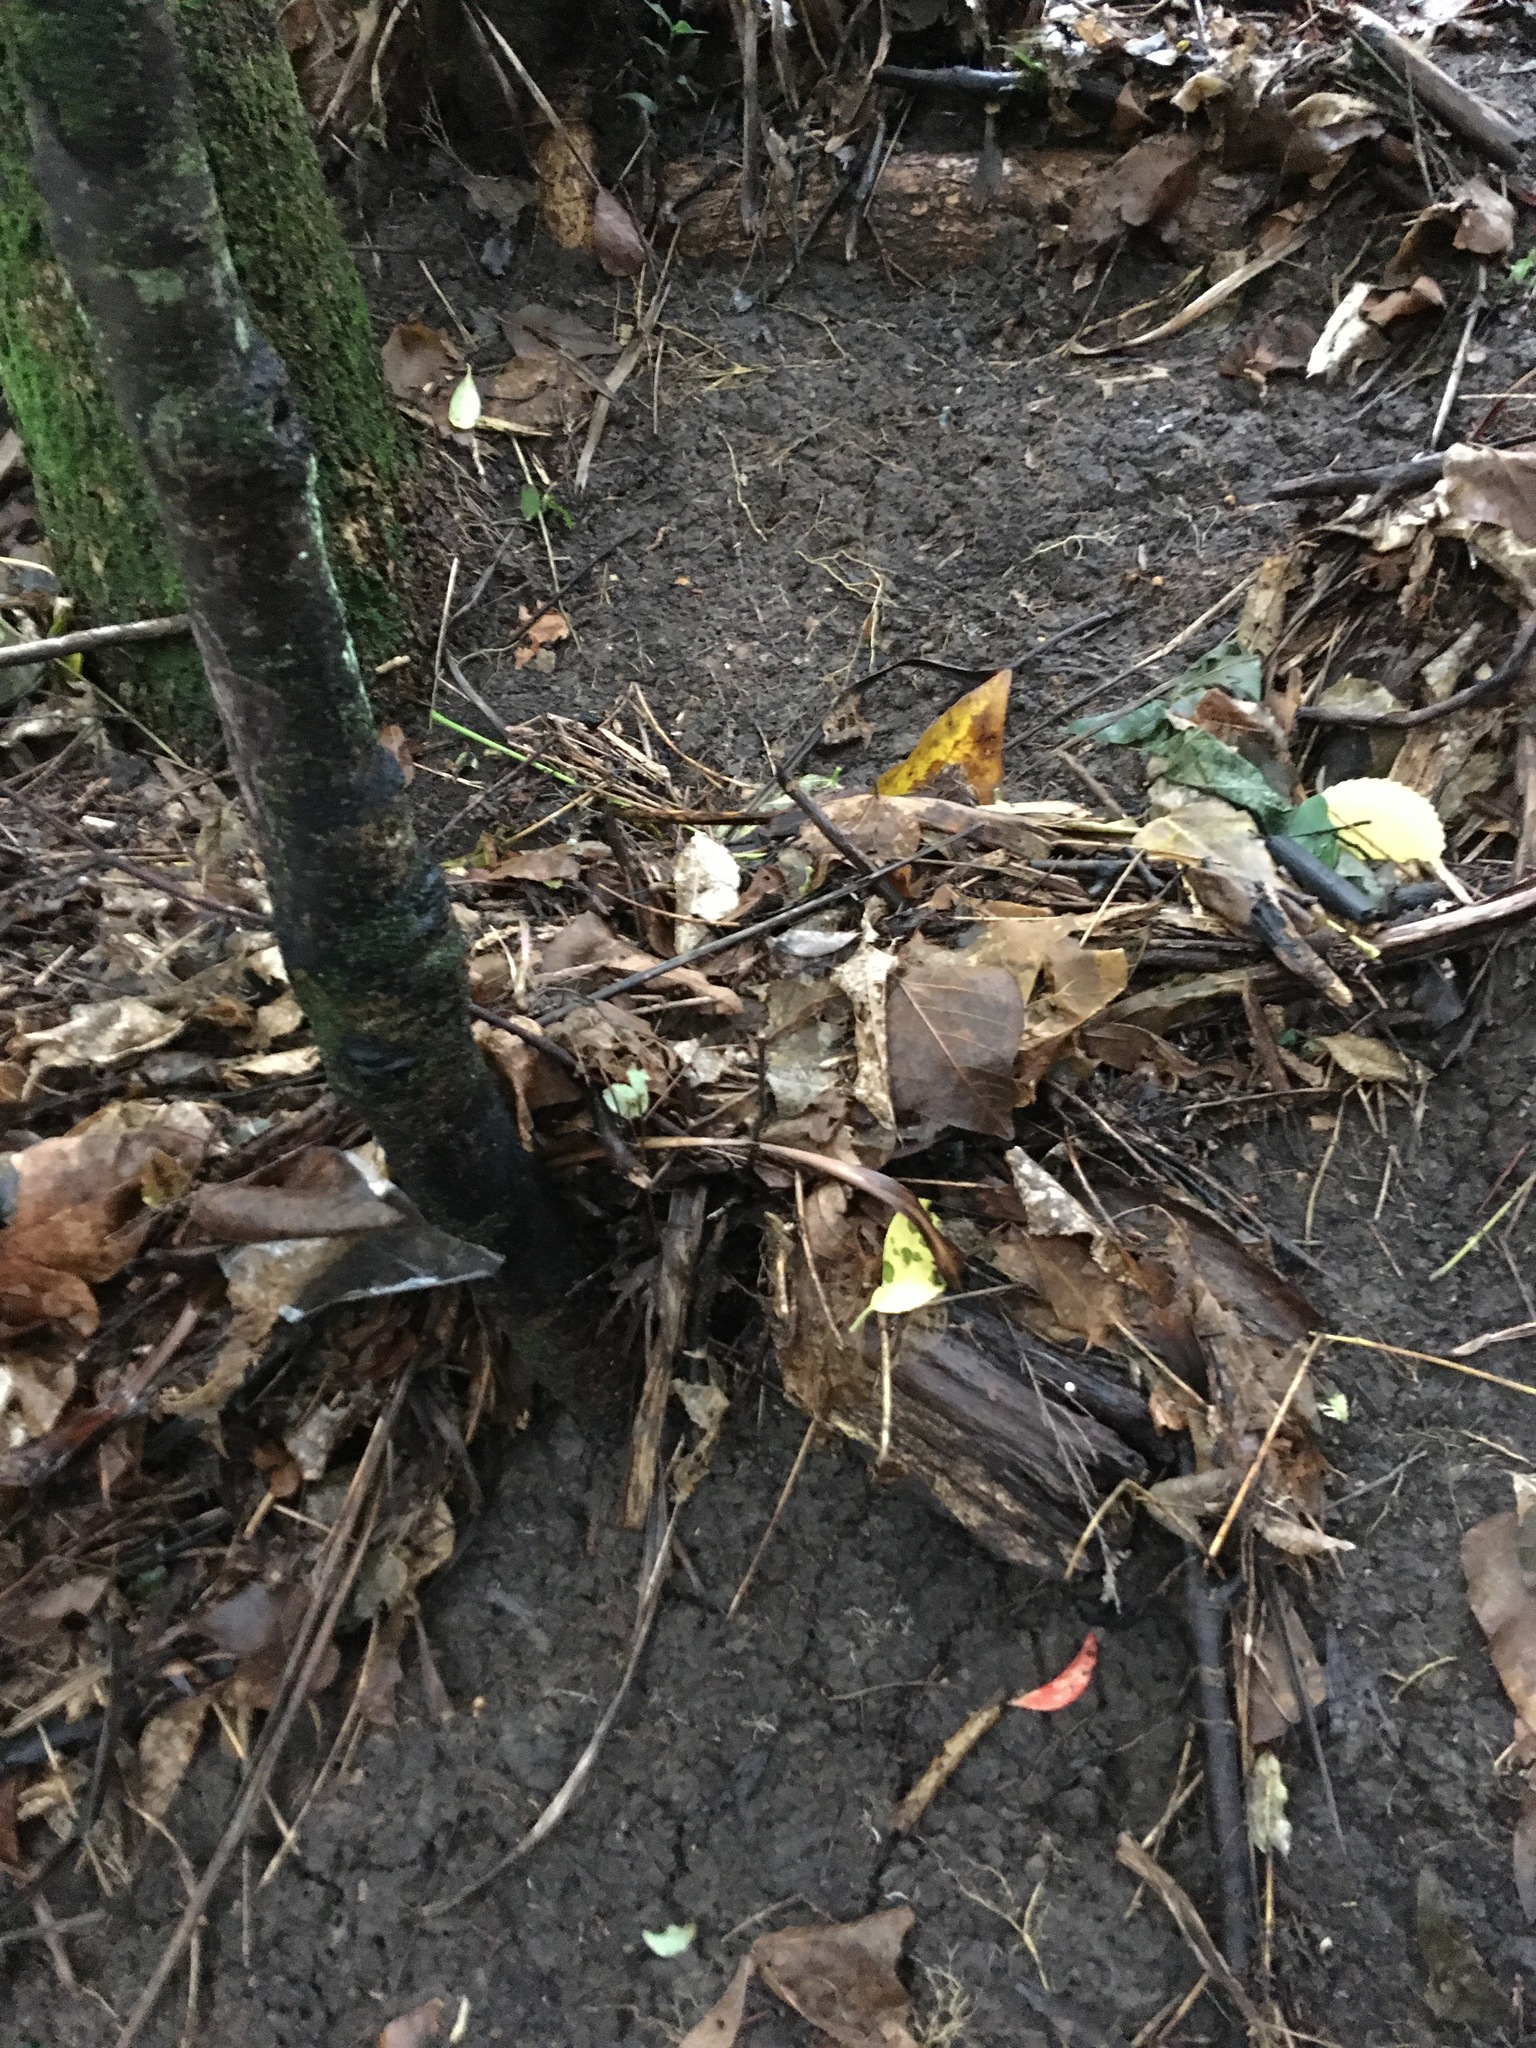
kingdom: Plantae
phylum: Tracheophyta
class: Magnoliopsida
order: Ericales
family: Primulaceae
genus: Myrsine
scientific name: Myrsine australis
